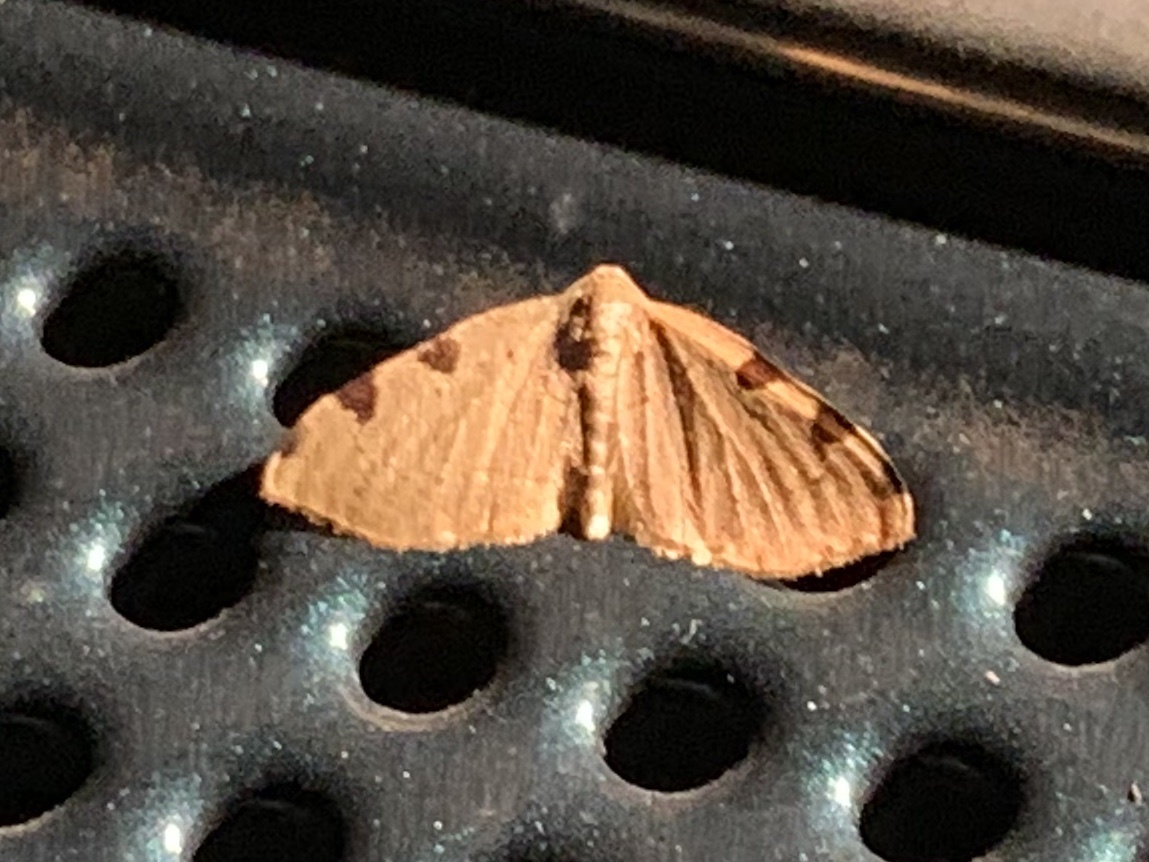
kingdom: Animalia
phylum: Arthropoda
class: Insecta
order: Lepidoptera
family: Geometridae
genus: Heterophleps
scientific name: Heterophleps triguttaria
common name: Three-spotted fillip
